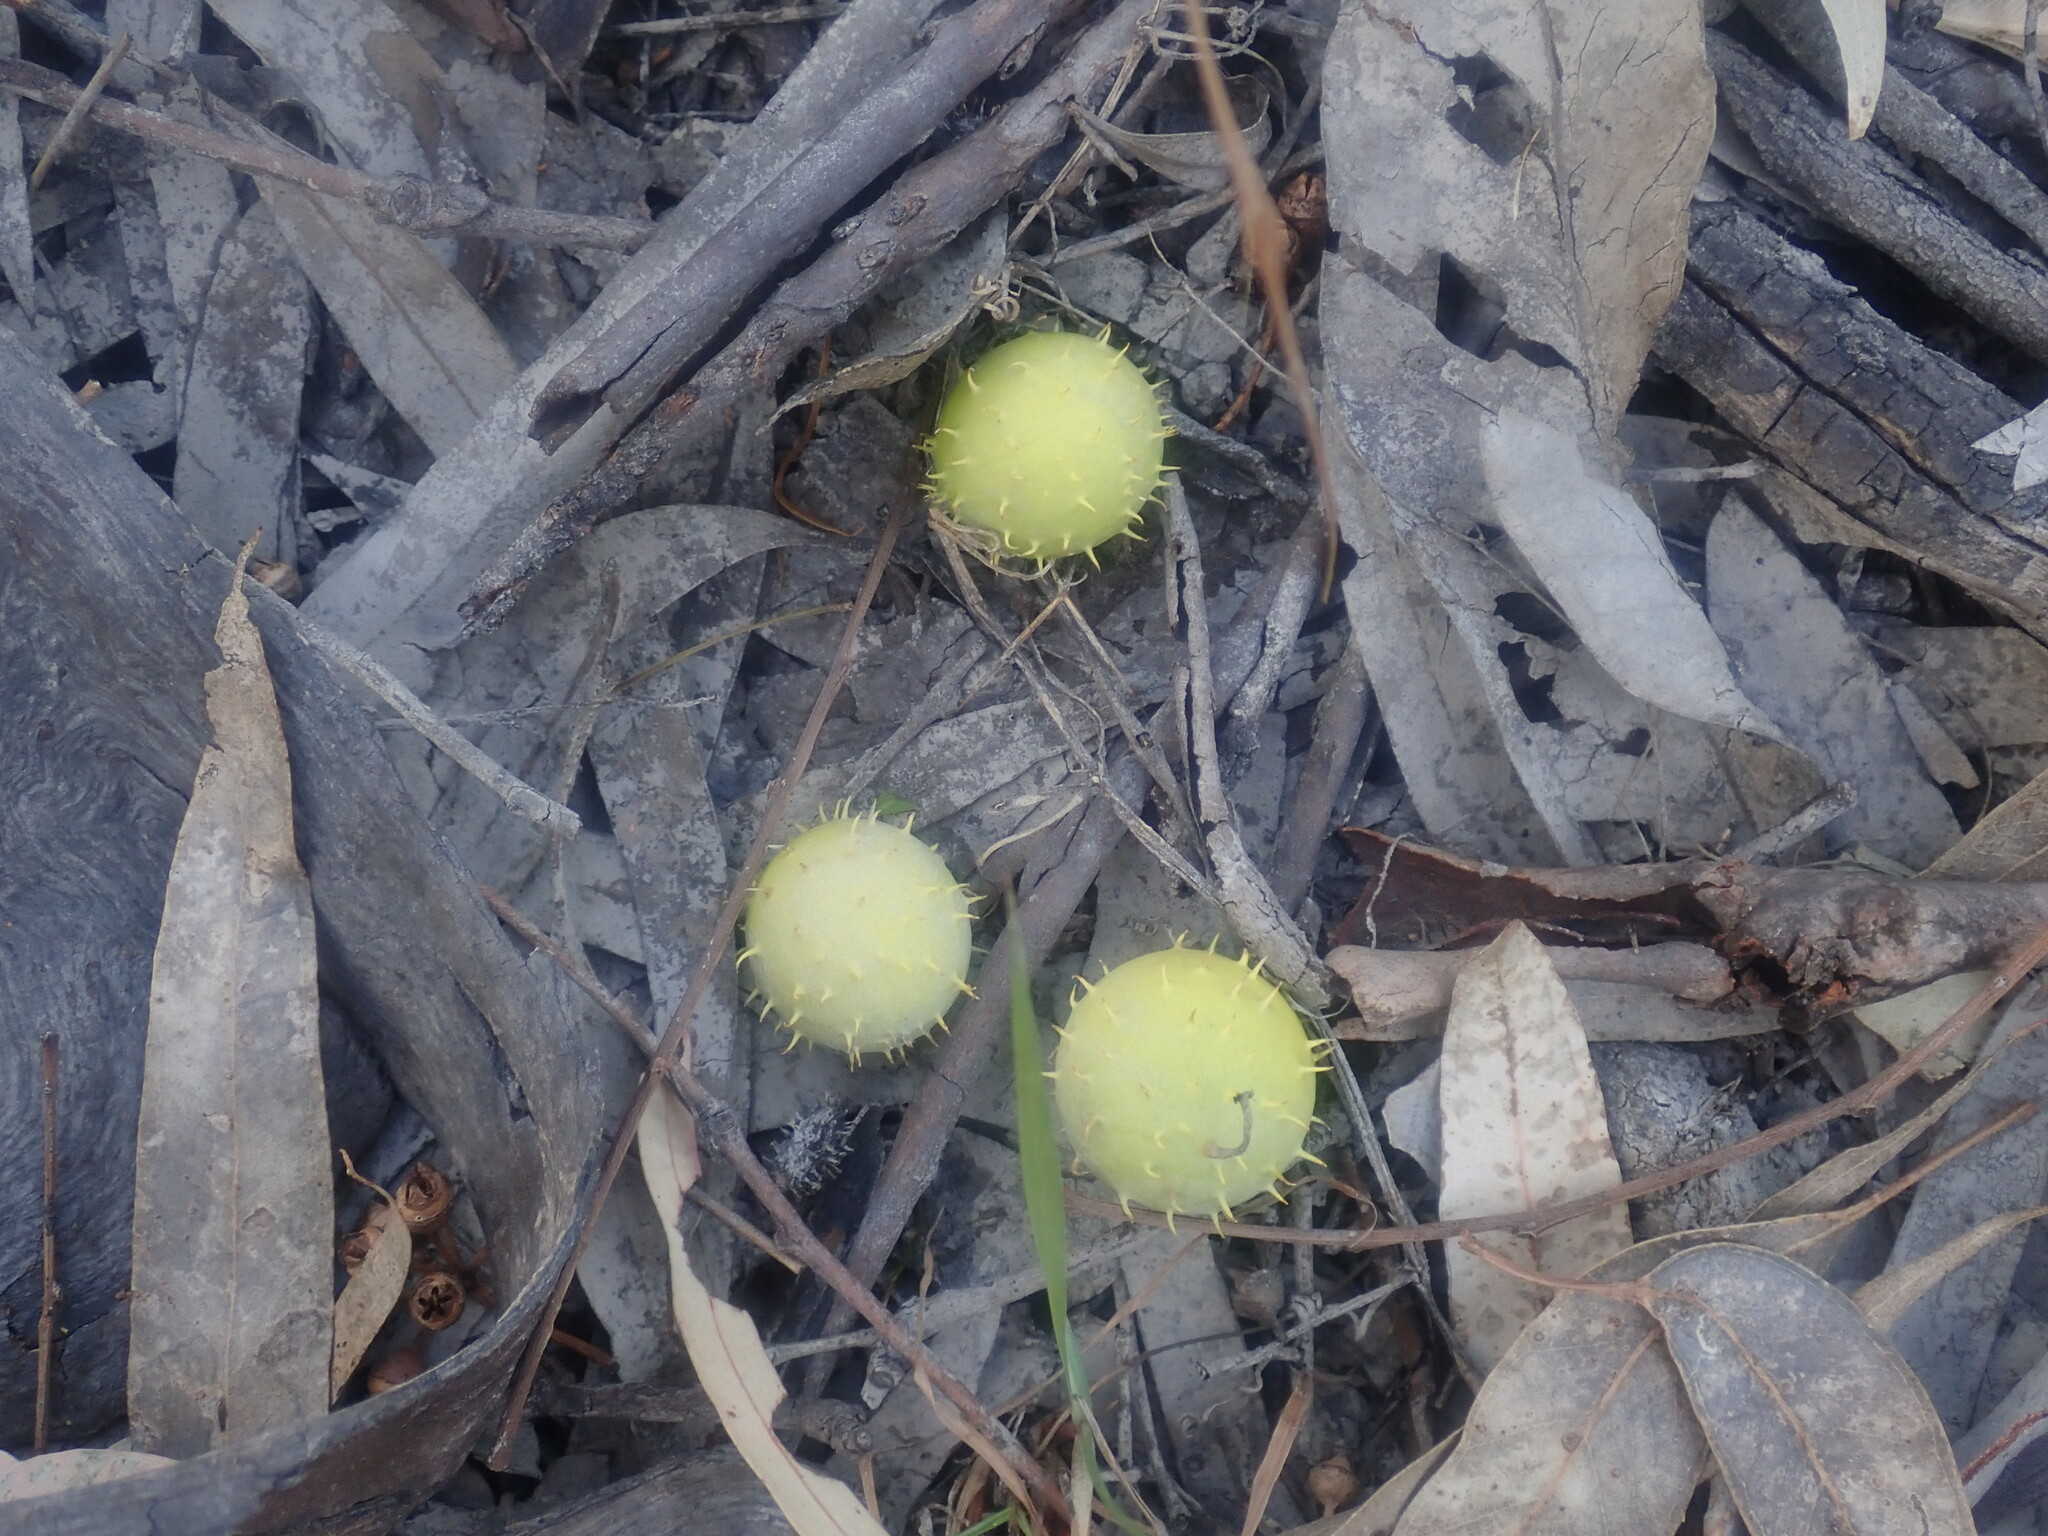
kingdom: Plantae
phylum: Tracheophyta
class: Magnoliopsida
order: Cucurbitales
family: Cucurbitaceae
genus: Cucumis
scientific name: Cucumis myriocarpus
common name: Gooseberry cucumber
